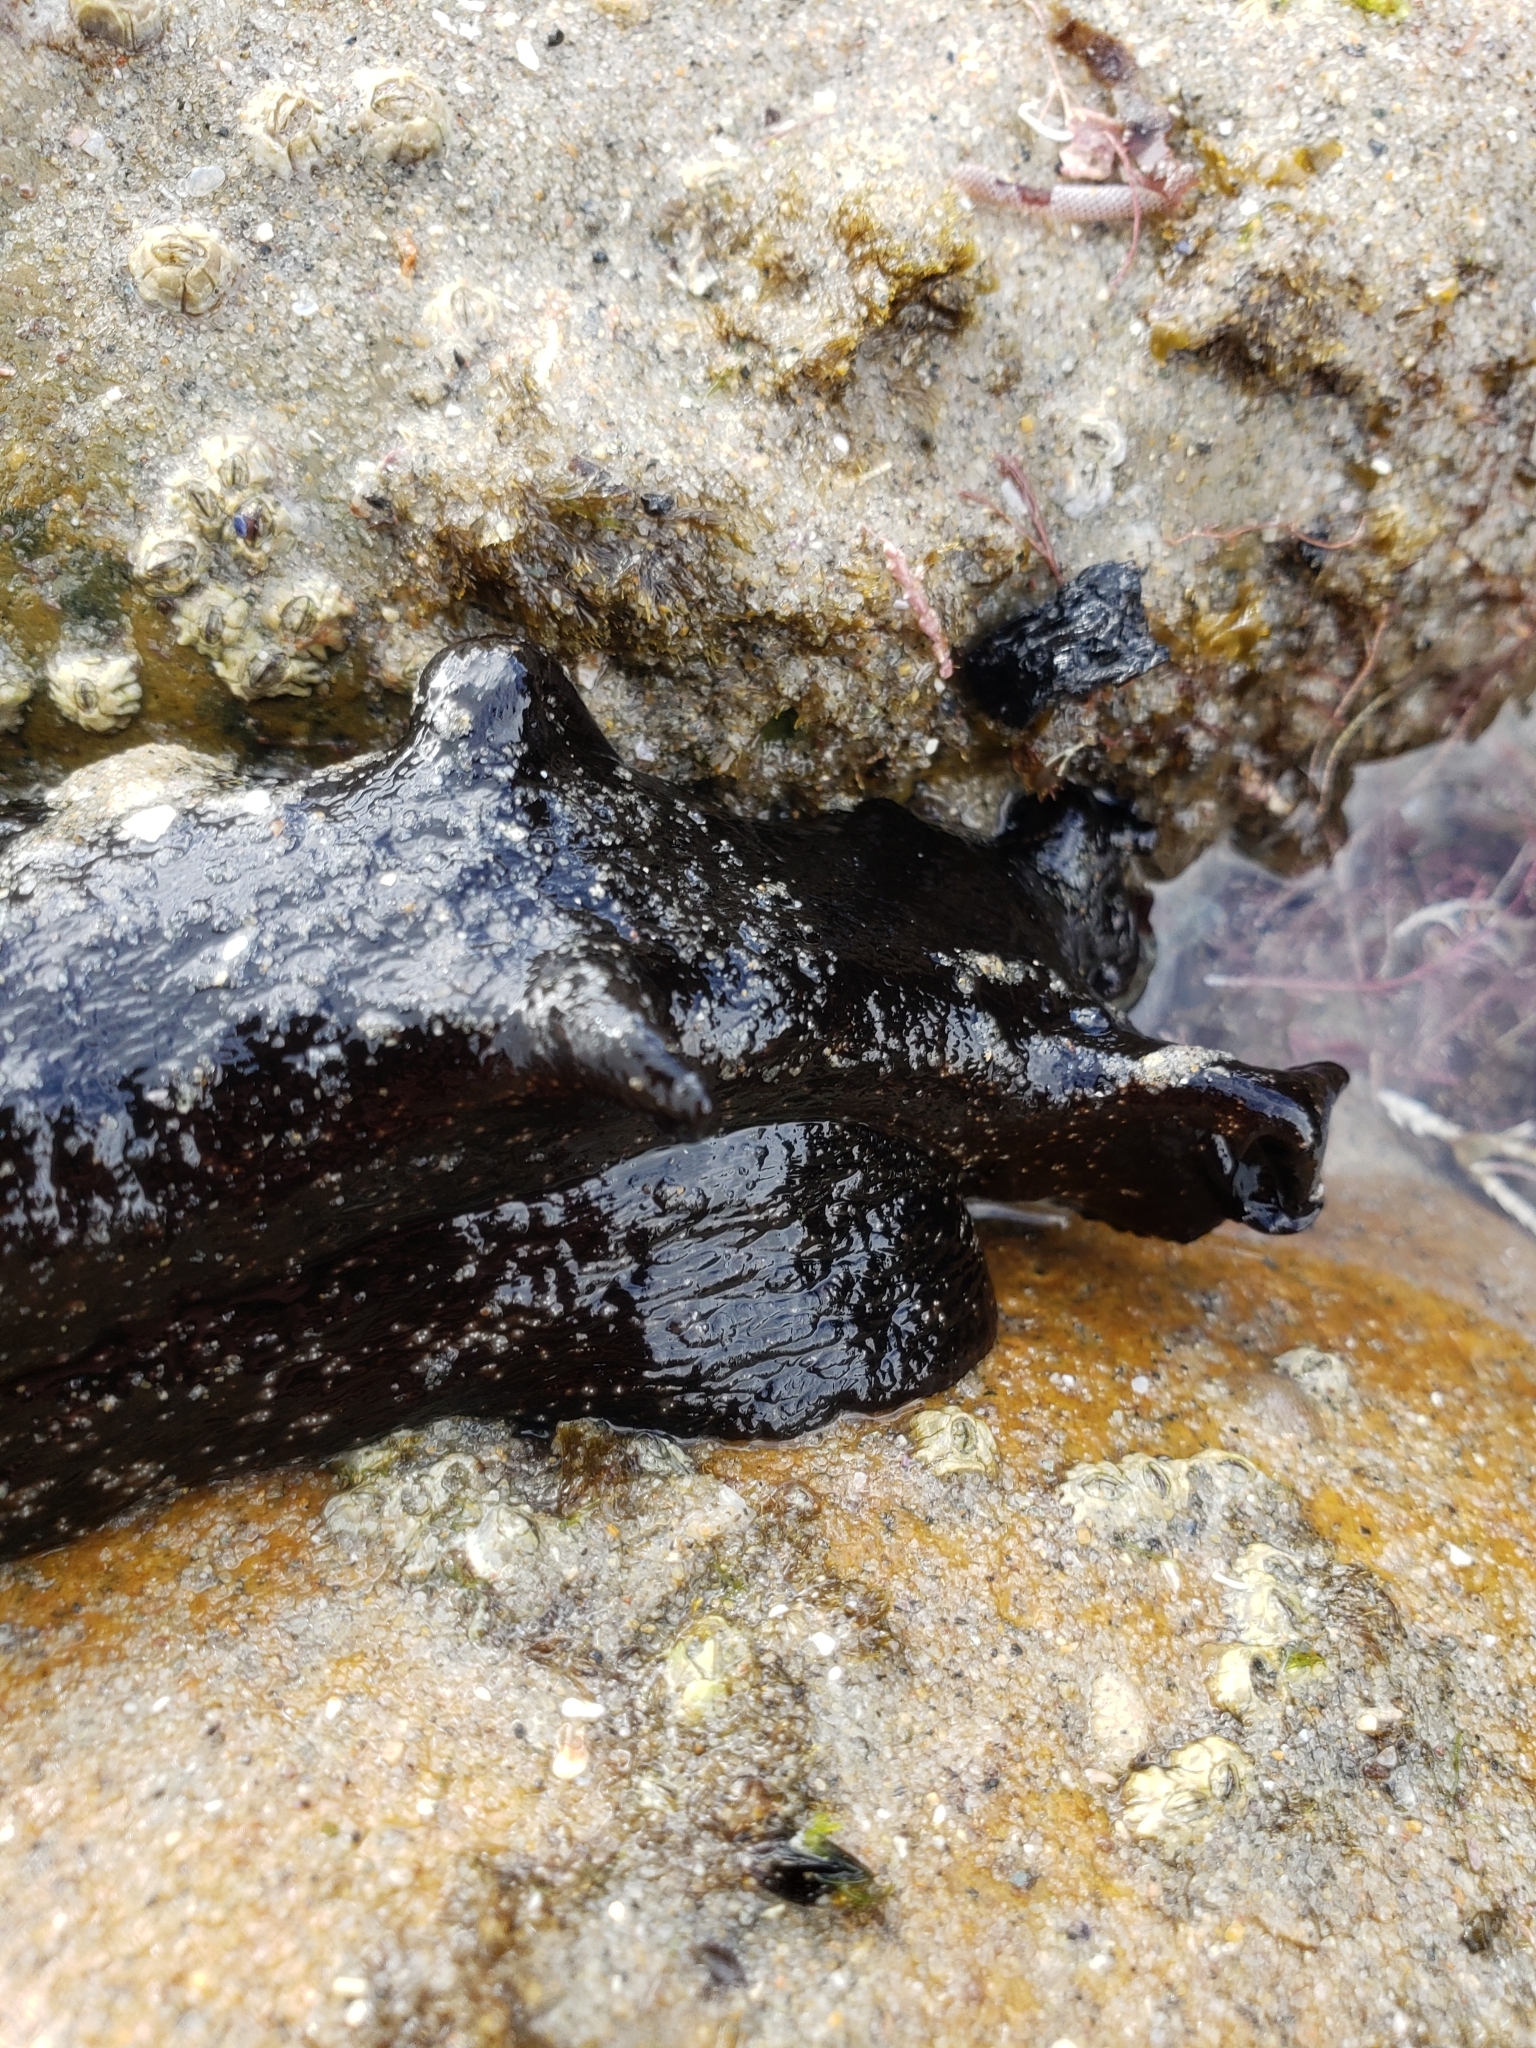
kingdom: Animalia
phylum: Mollusca
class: Gastropoda
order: Aplysiida
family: Aplysiidae
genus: Aplysia
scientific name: Aplysia vaccaria
